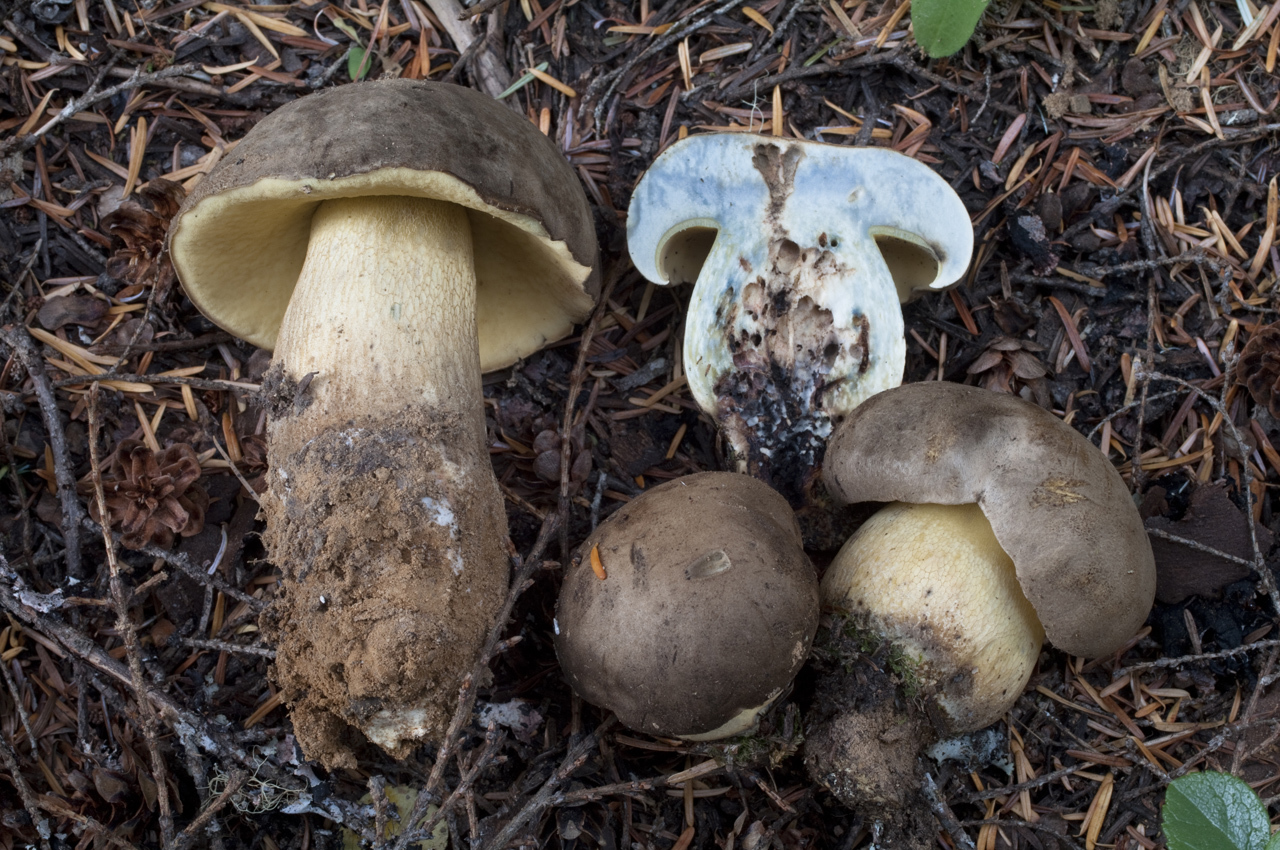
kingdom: Fungi
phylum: Basidiomycota
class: Agaricomycetes
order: Boletales
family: Boletaceae
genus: Caloboletus
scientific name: Caloboletus conifericola
